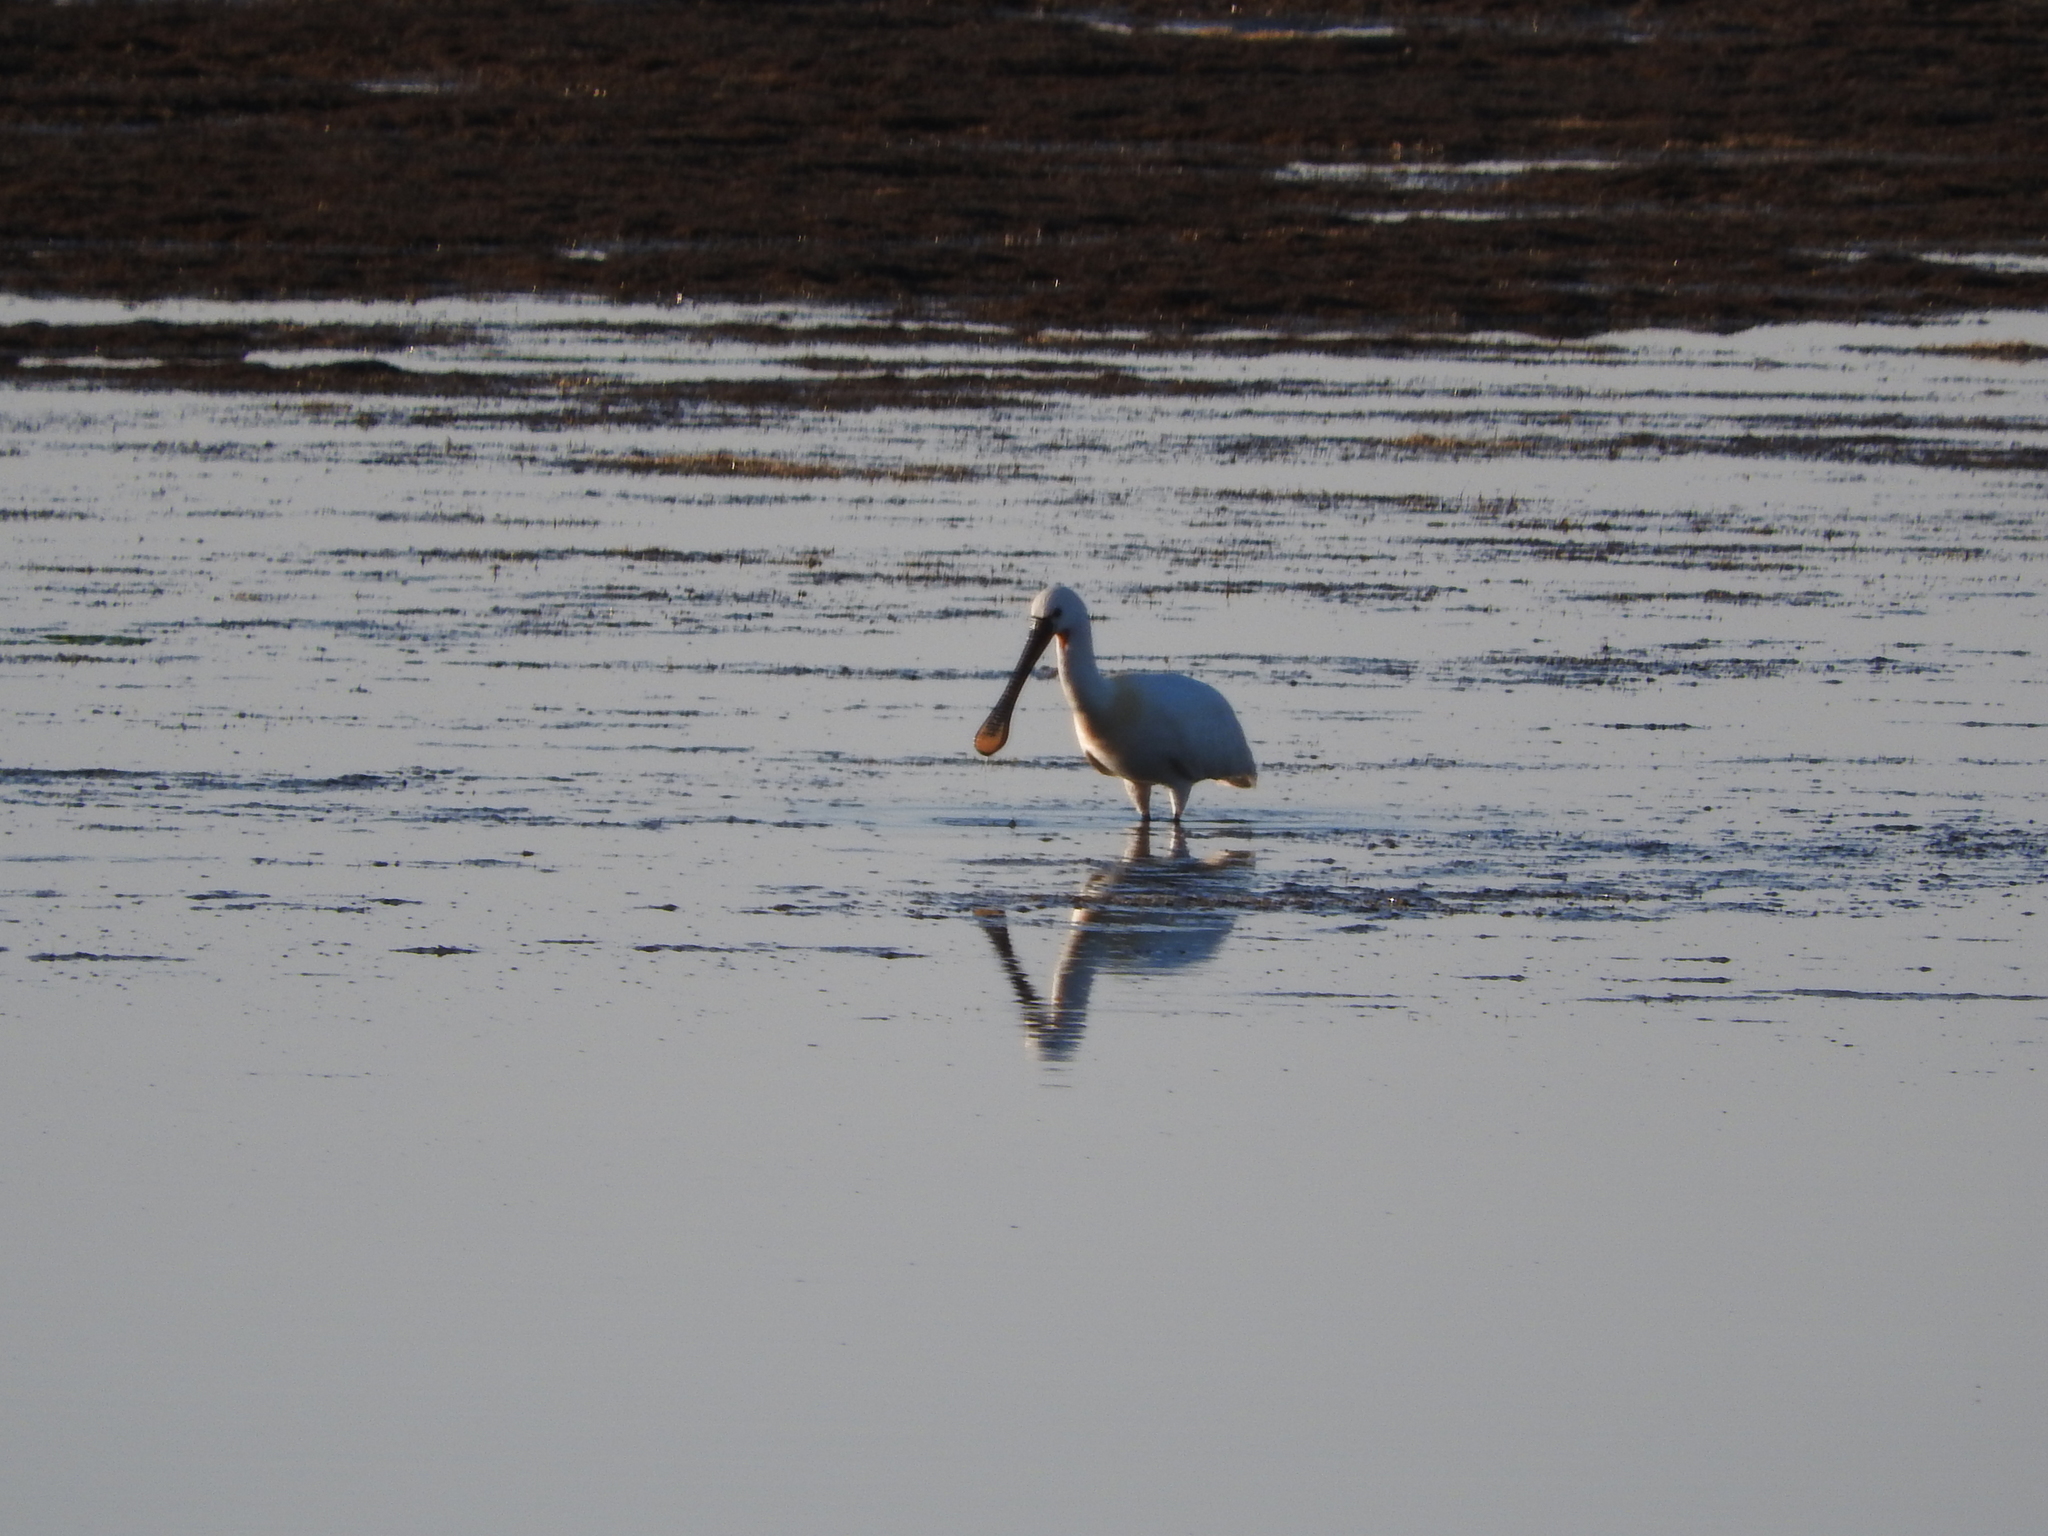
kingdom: Animalia
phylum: Chordata
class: Aves
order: Pelecaniformes
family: Threskiornithidae
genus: Platalea
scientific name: Platalea leucorodia
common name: Eurasian spoonbill
